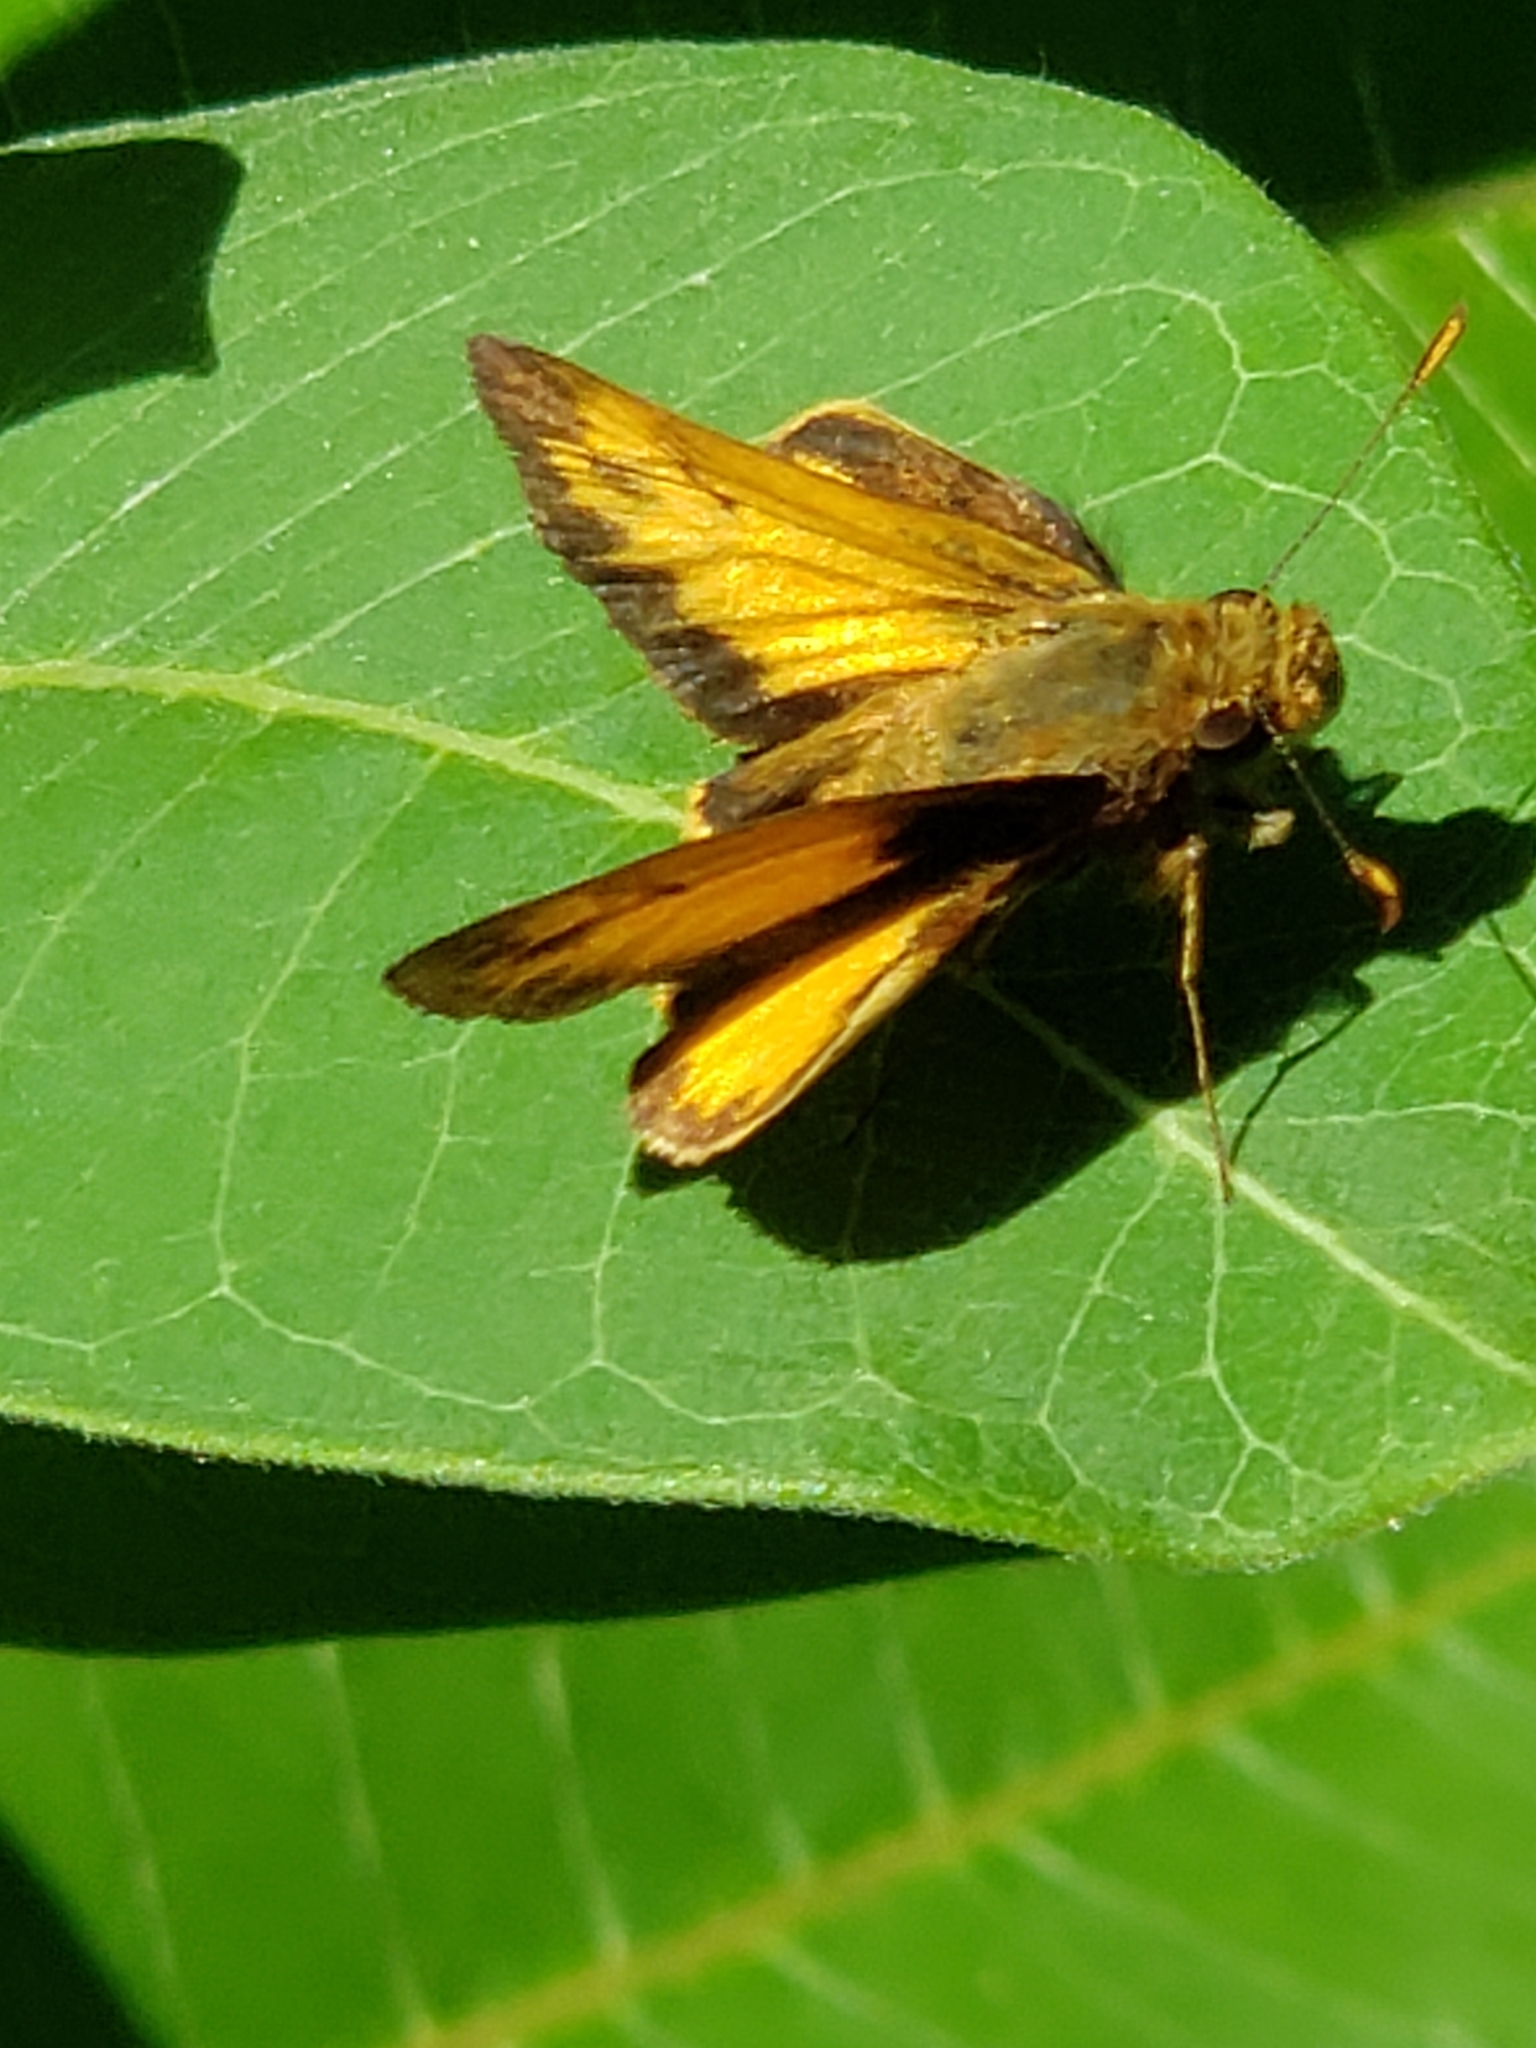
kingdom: Animalia
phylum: Arthropoda
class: Insecta
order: Lepidoptera
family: Hesperiidae
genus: Lon
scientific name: Lon zabulon
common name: Zabulon skipper
